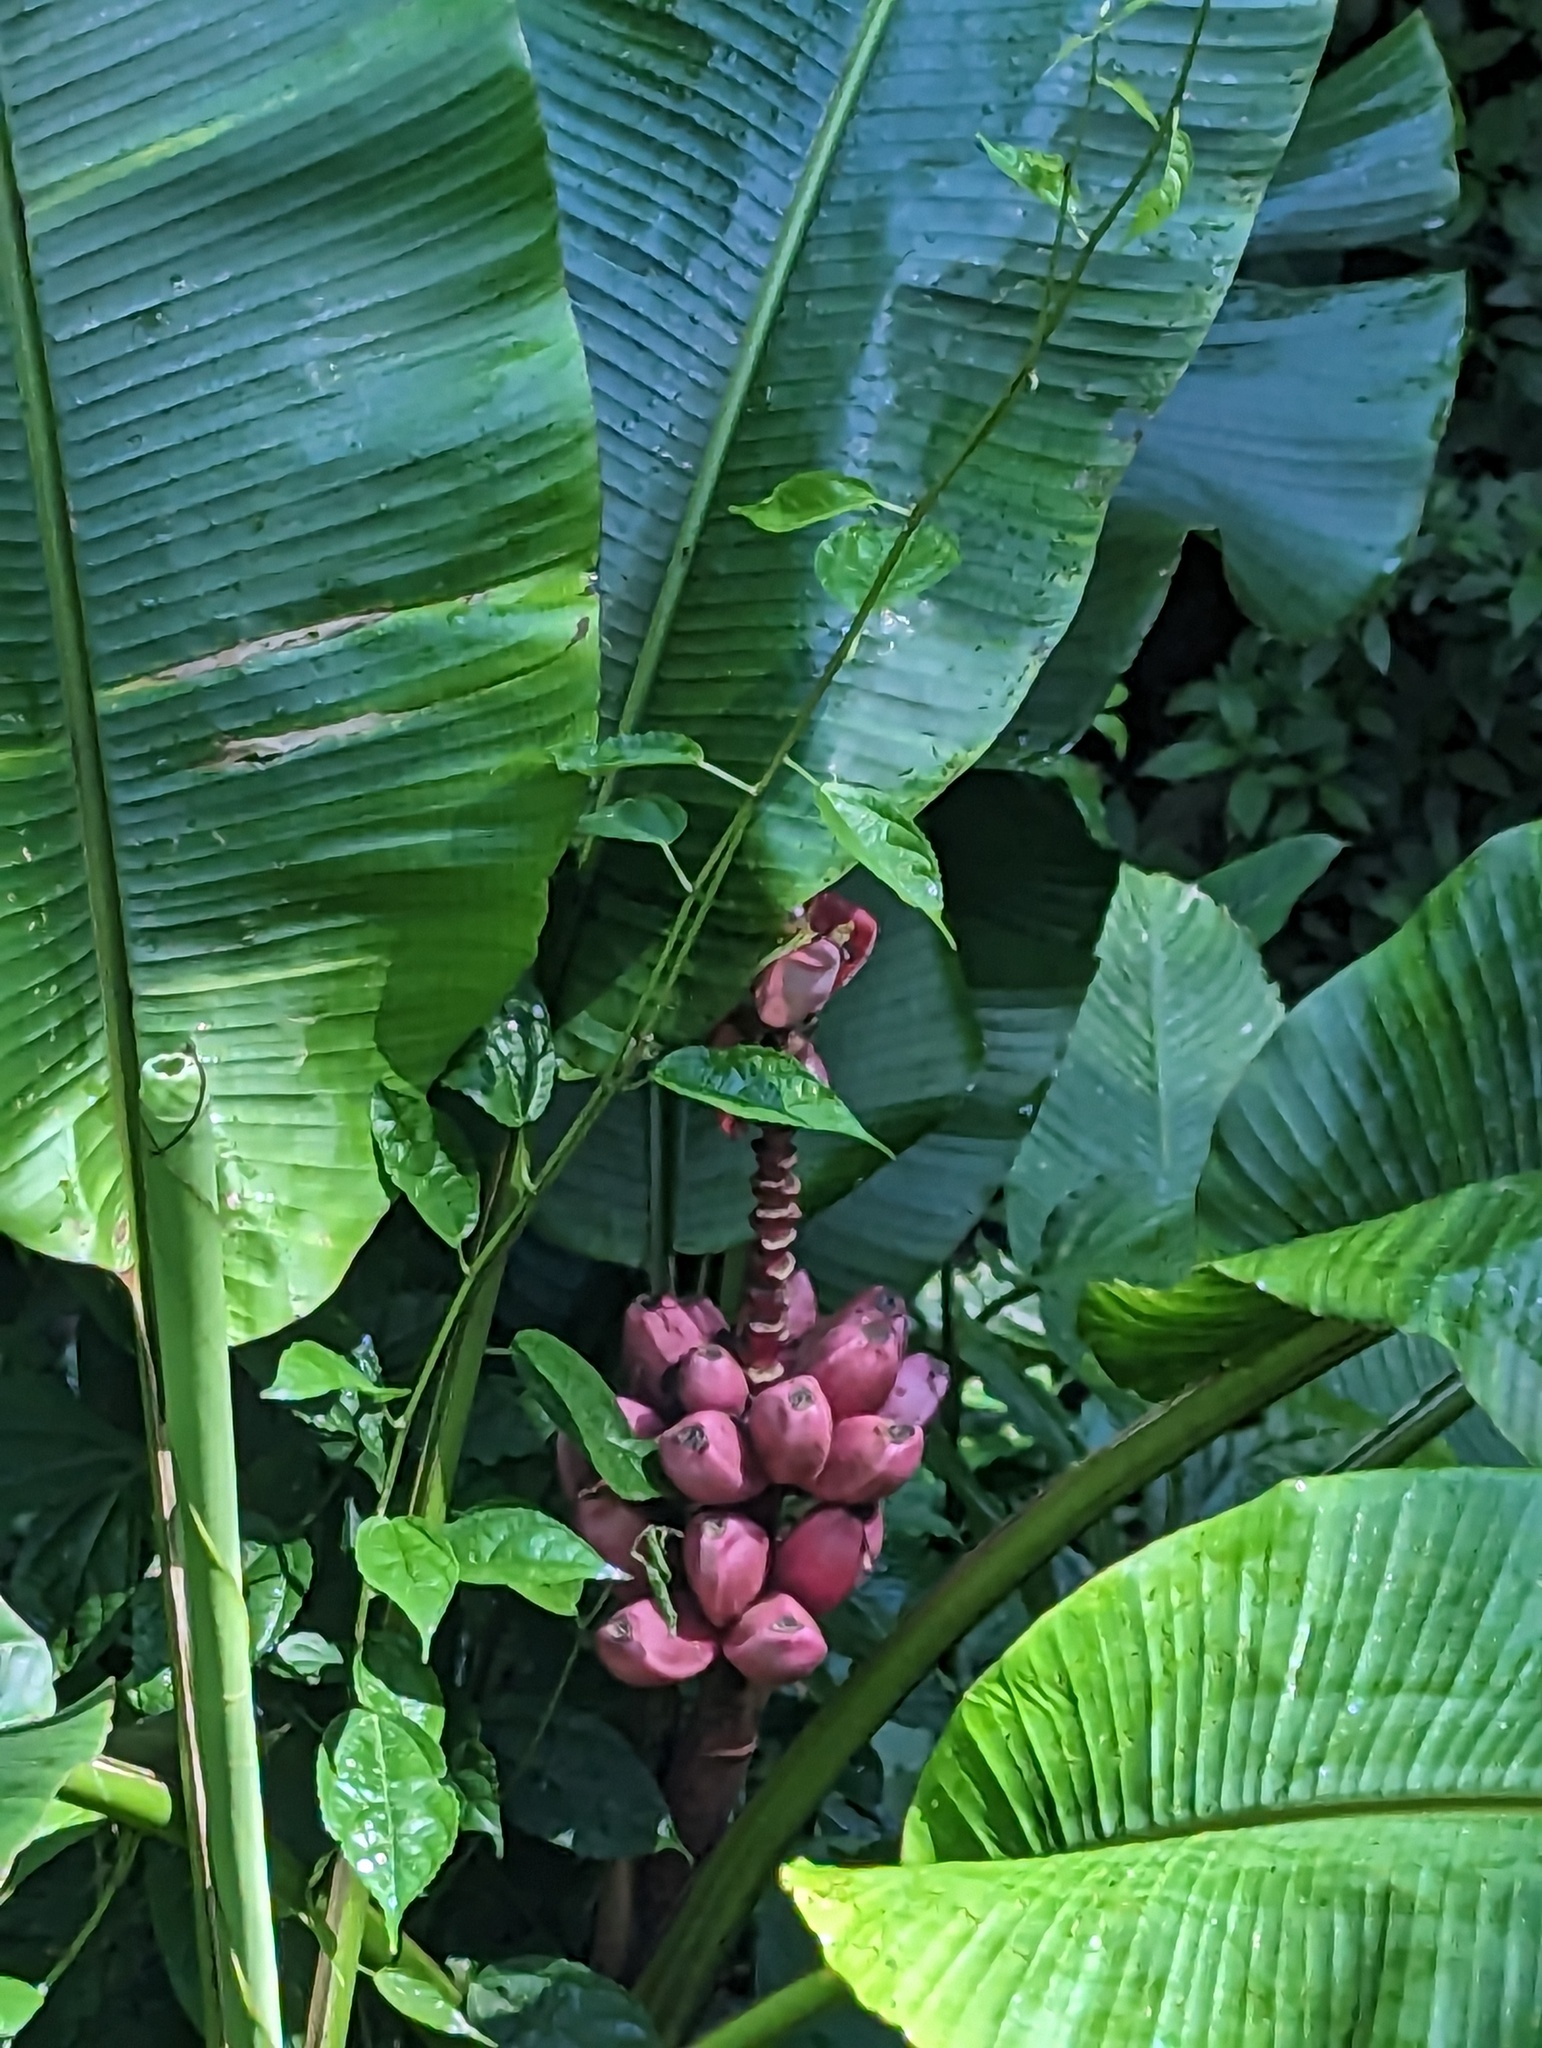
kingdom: Plantae
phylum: Tracheophyta
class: Liliopsida
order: Zingiberales
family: Musaceae
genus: Musa
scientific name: Musa velutina
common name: Pink velvet banana
